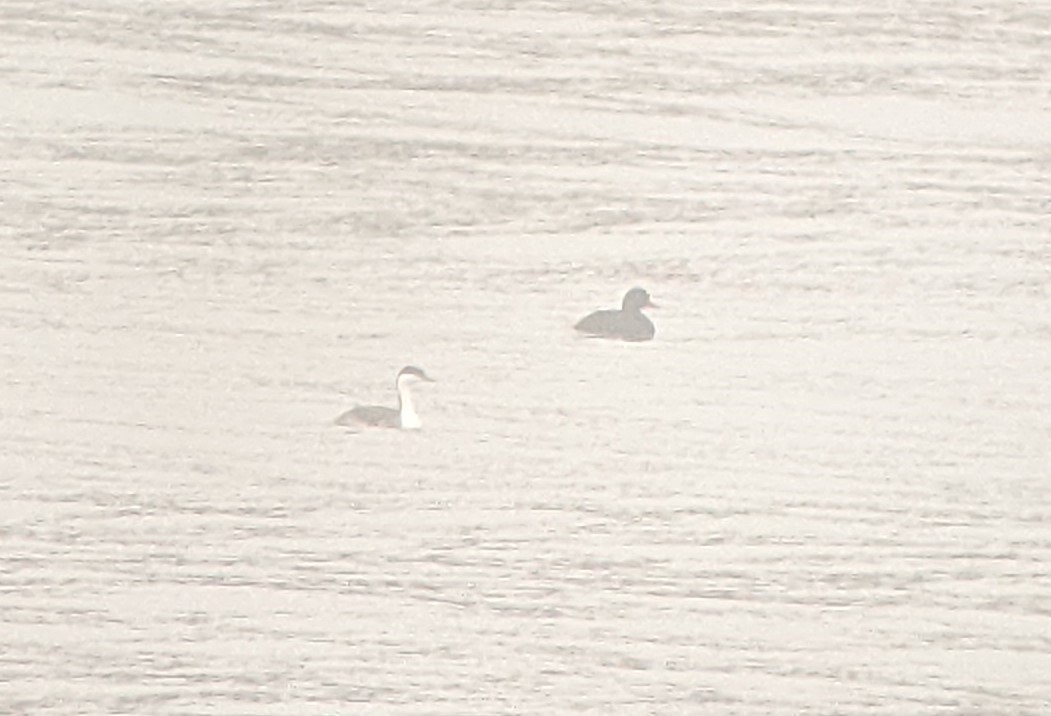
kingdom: Animalia
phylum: Chordata
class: Aves
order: Podicipediformes
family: Podicipedidae
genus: Aechmophorus
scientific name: Aechmophorus occidentalis
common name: Western grebe
